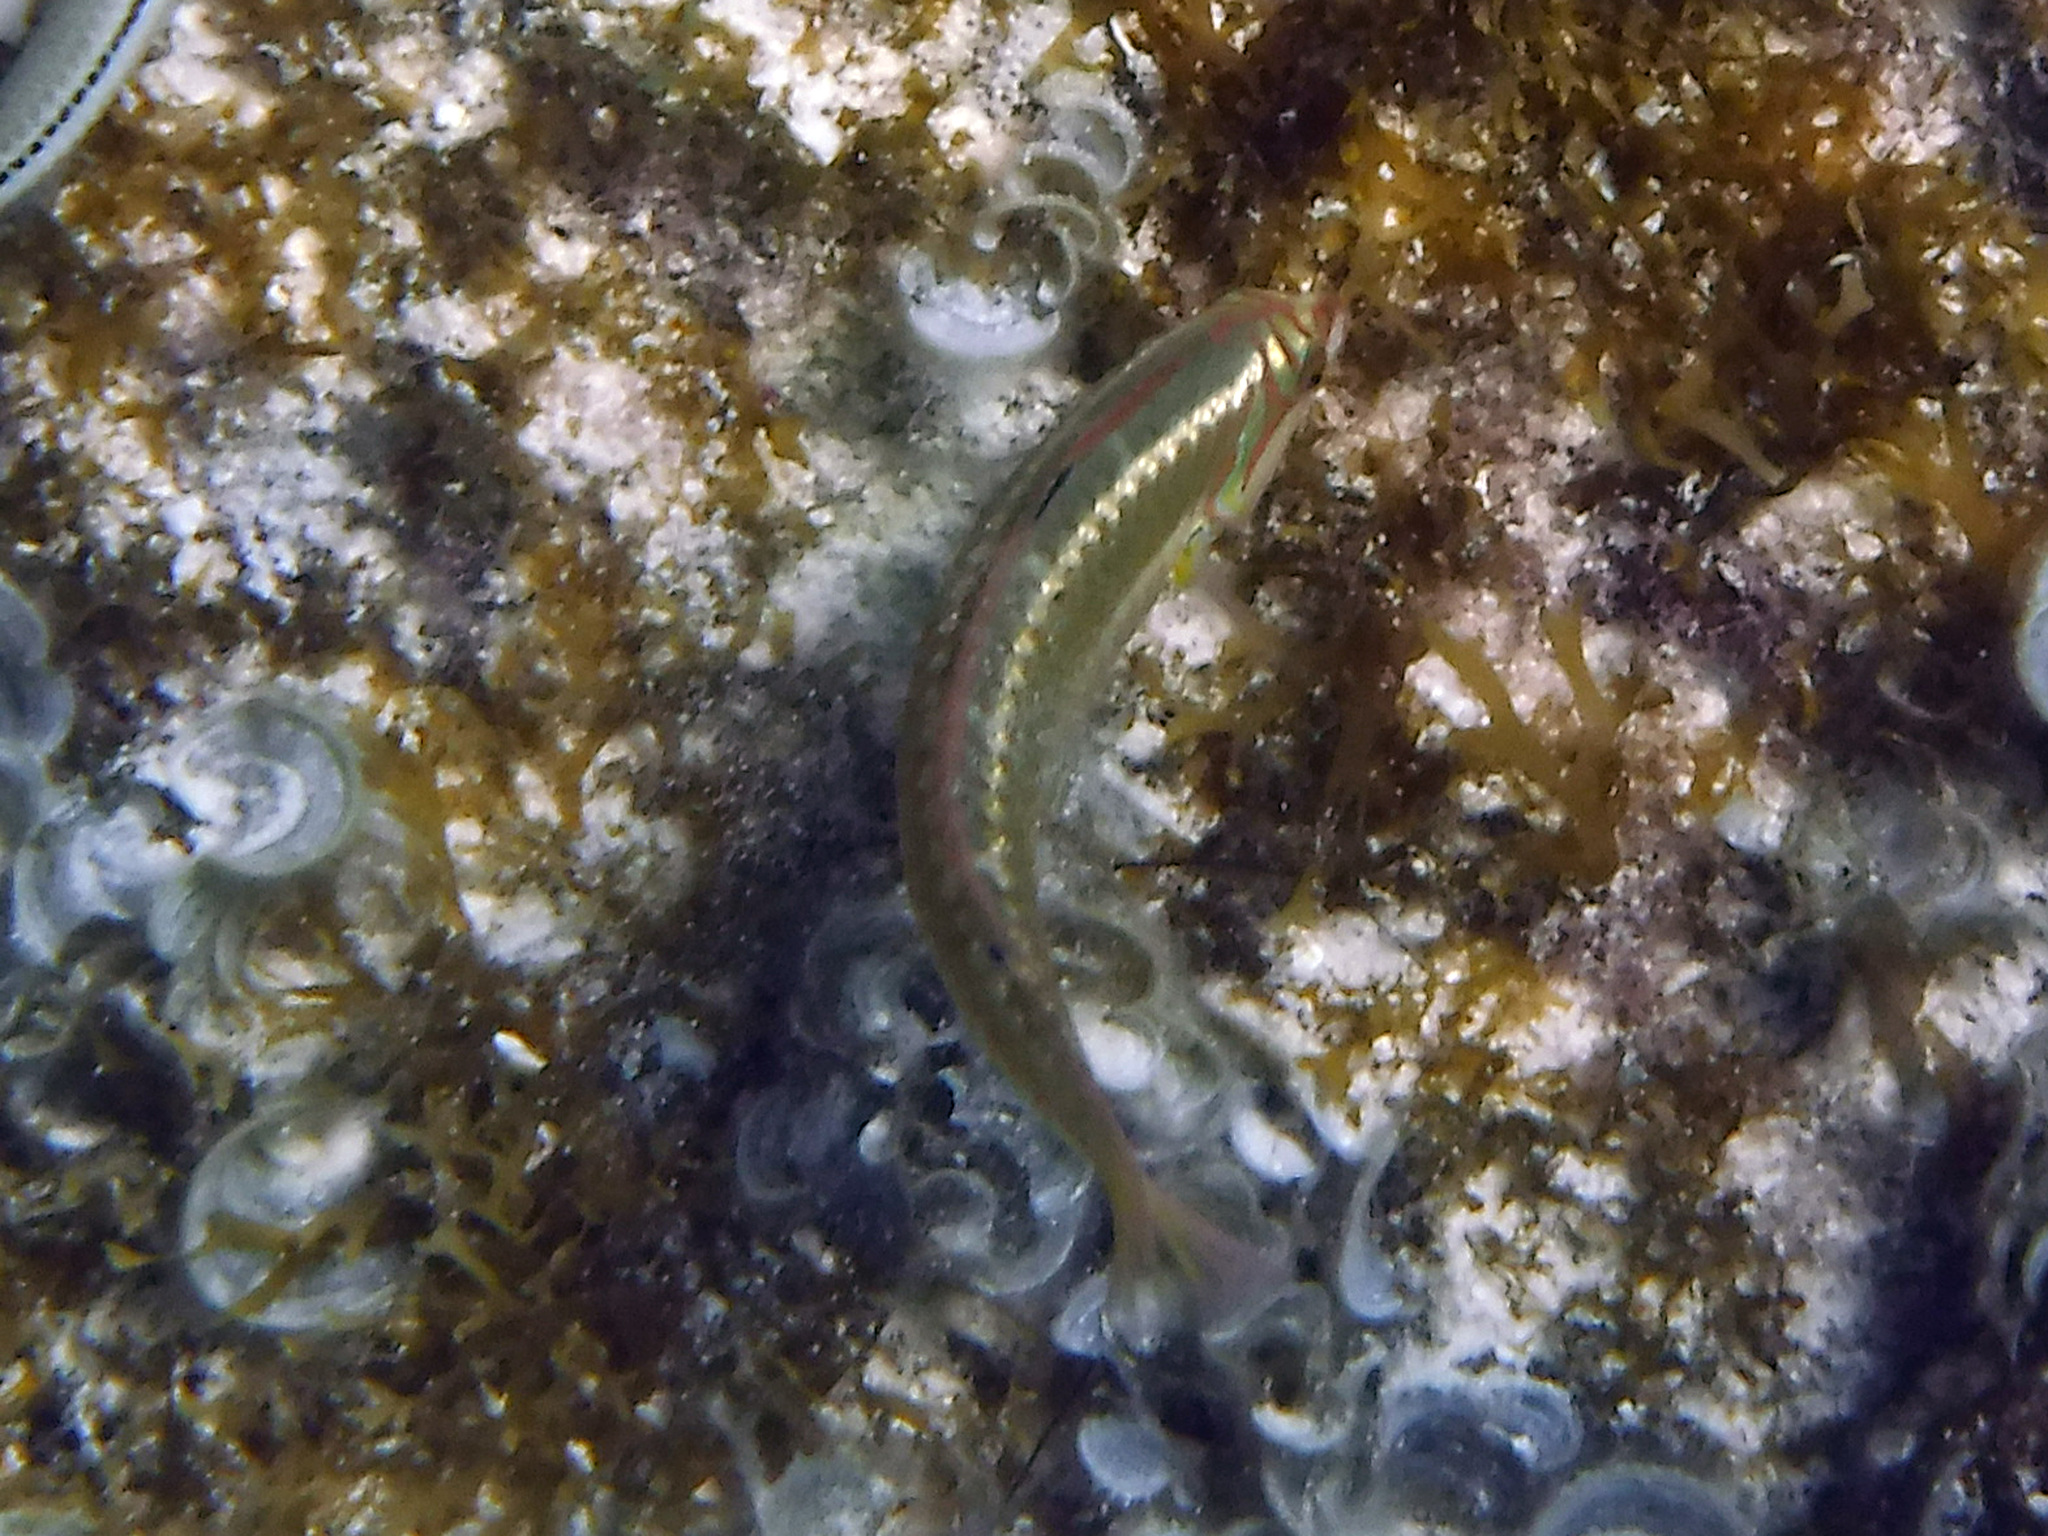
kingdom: Animalia
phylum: Chordata
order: Perciformes
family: Labridae
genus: Halichoeres
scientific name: Halichoeres maculipinna
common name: Clown wrasse
